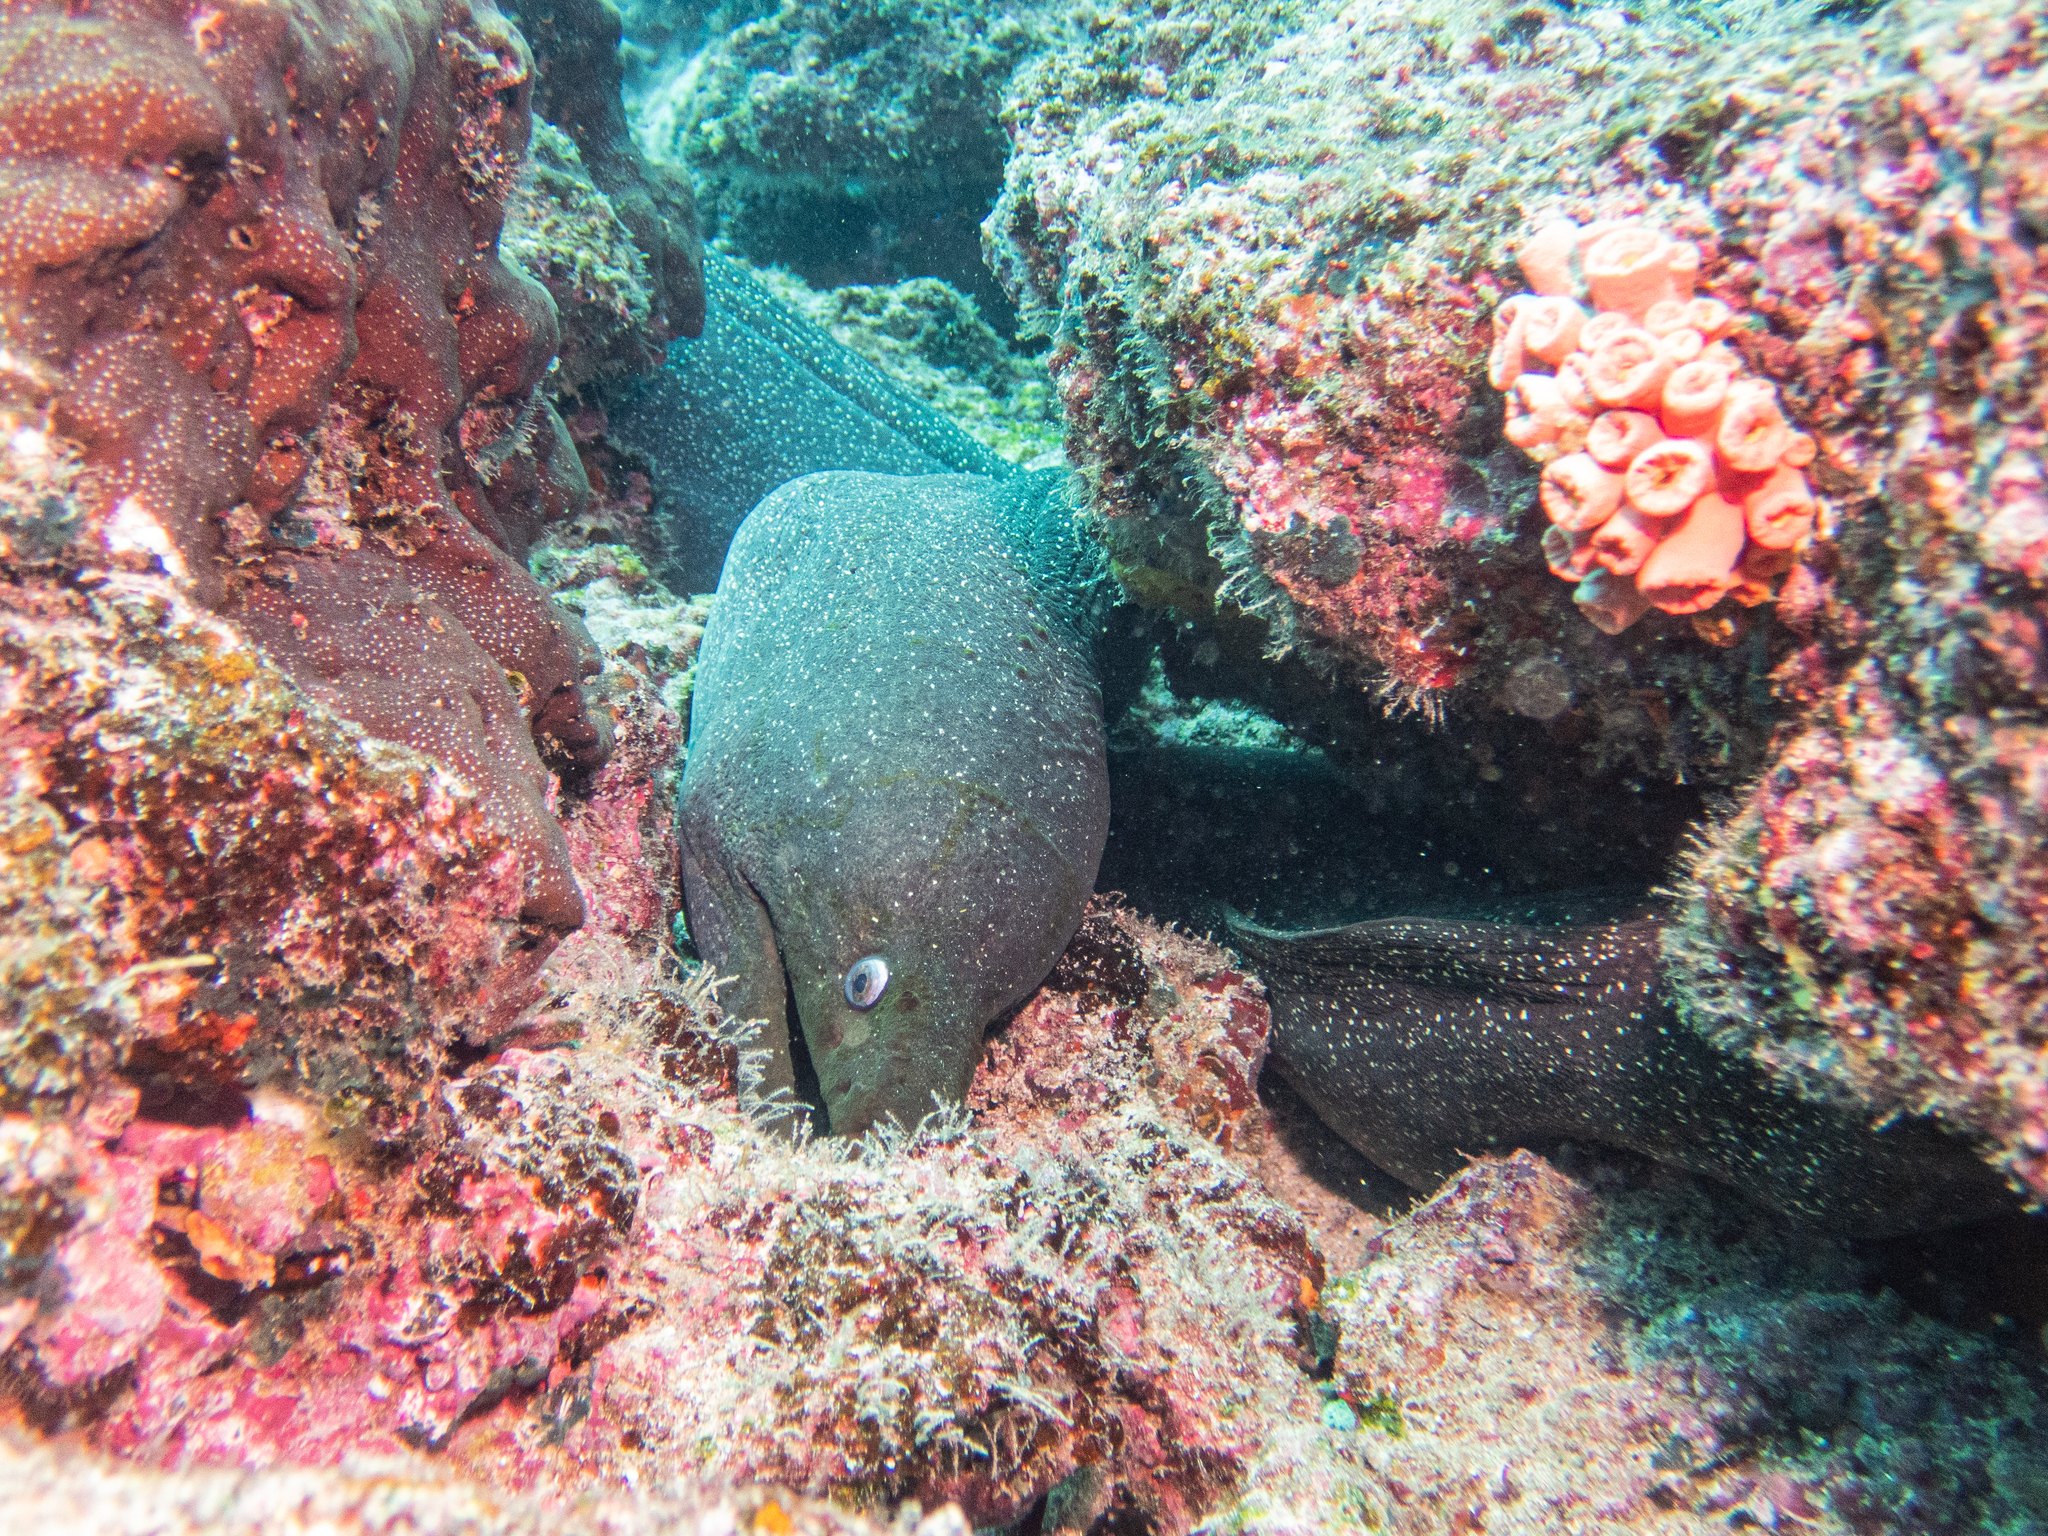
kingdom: Animalia
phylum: Chordata
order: Anguilliformes
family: Muraenidae
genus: Gymnothorax
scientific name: Gymnothorax dovii
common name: Finespotted moray
